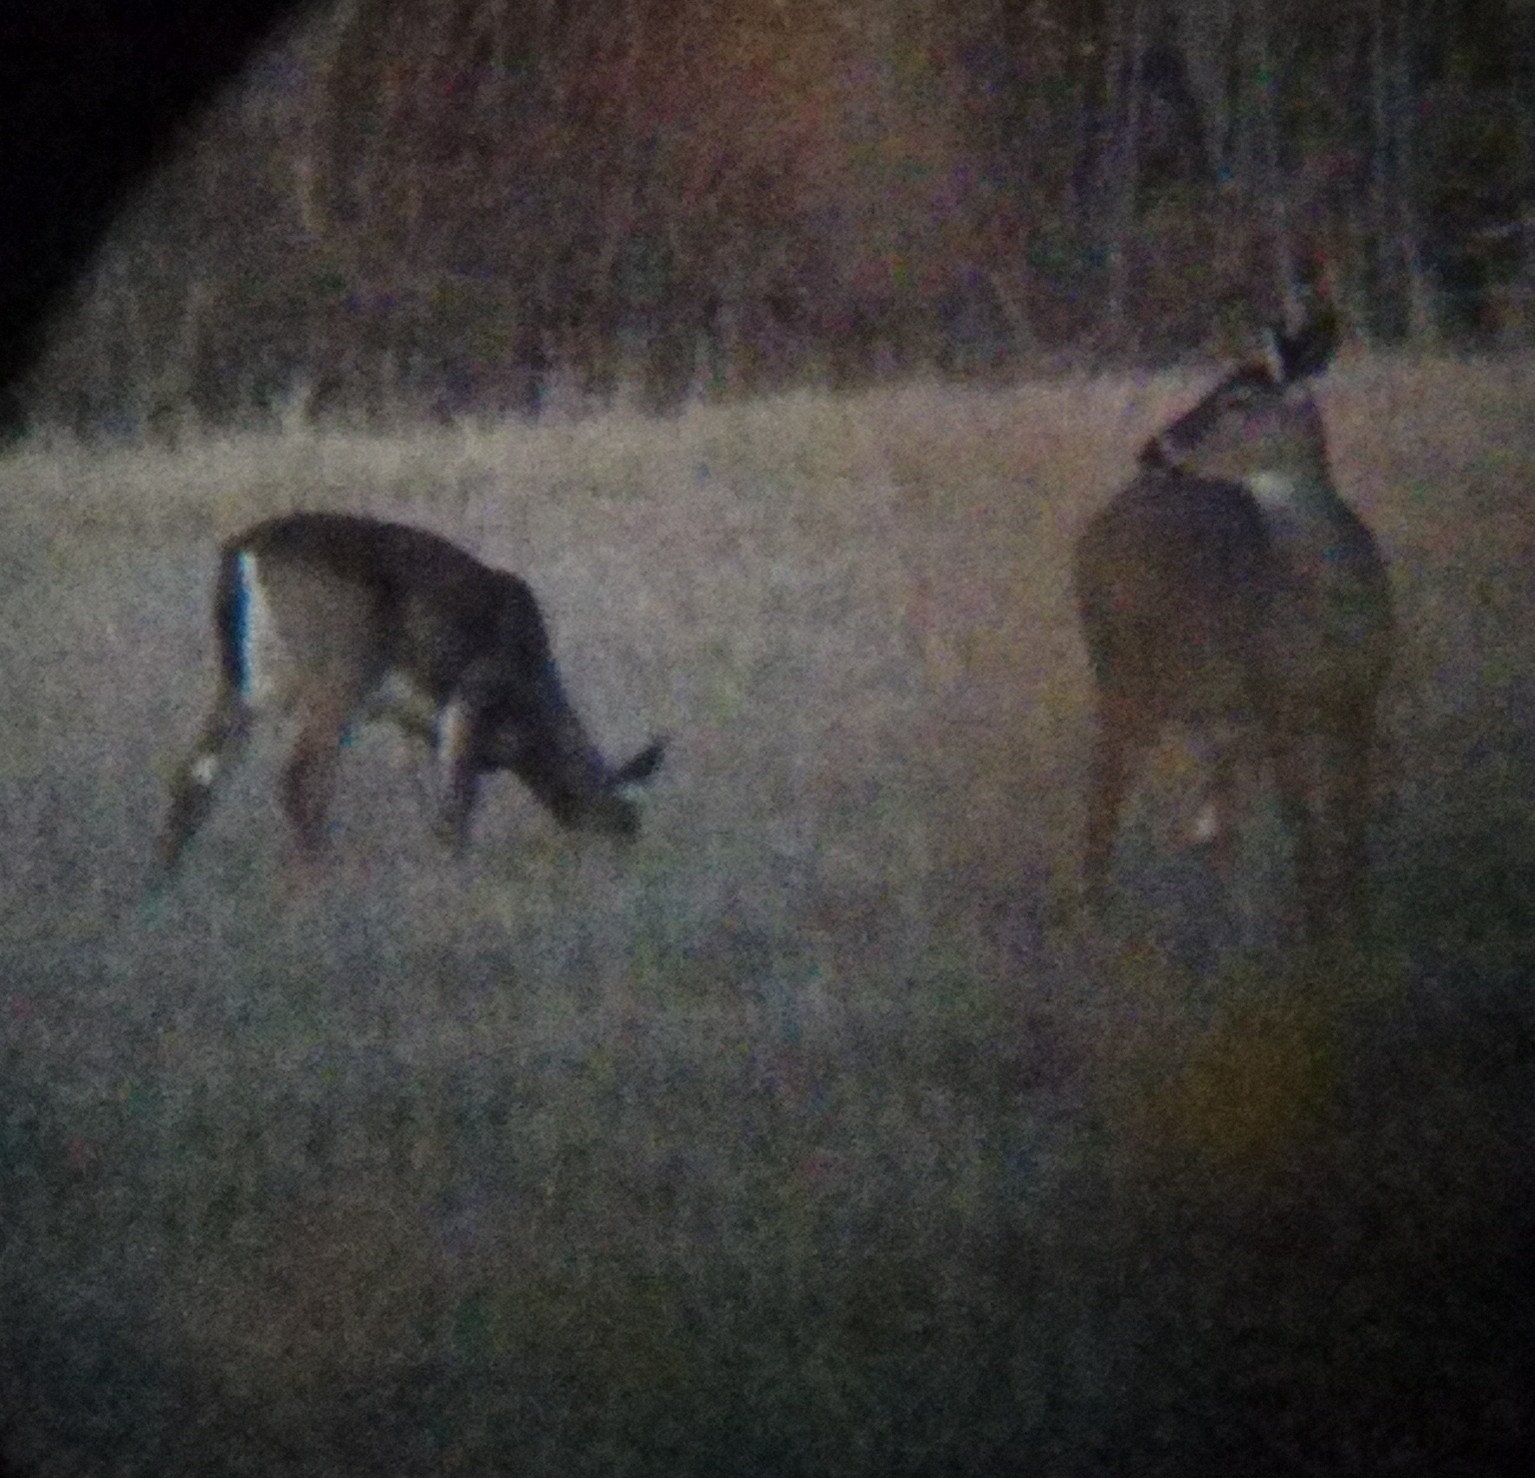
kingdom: Animalia
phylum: Chordata
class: Mammalia
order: Artiodactyla
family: Cervidae
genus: Odocoileus
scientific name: Odocoileus virginianus
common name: White-tailed deer
